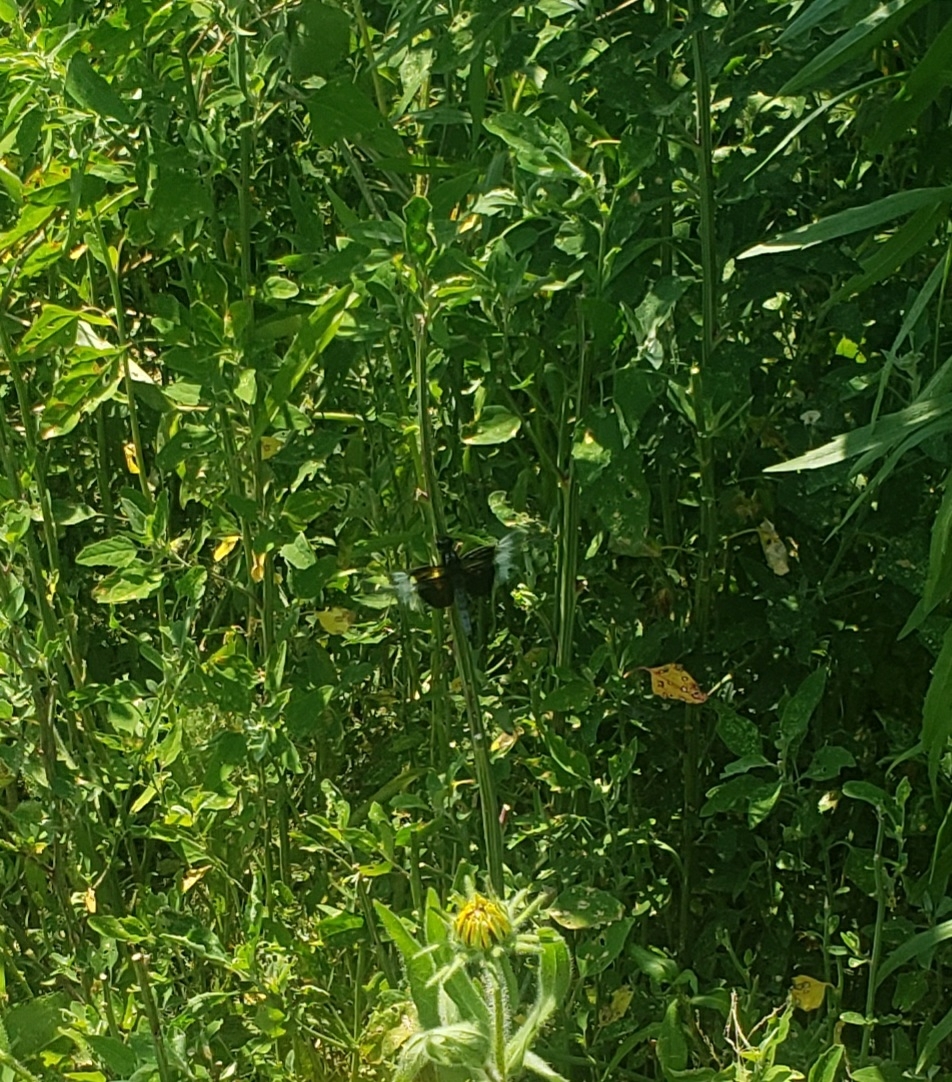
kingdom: Animalia
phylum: Arthropoda
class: Insecta
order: Odonata
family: Libellulidae
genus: Libellula
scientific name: Libellula luctuosa
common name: Widow skimmer
